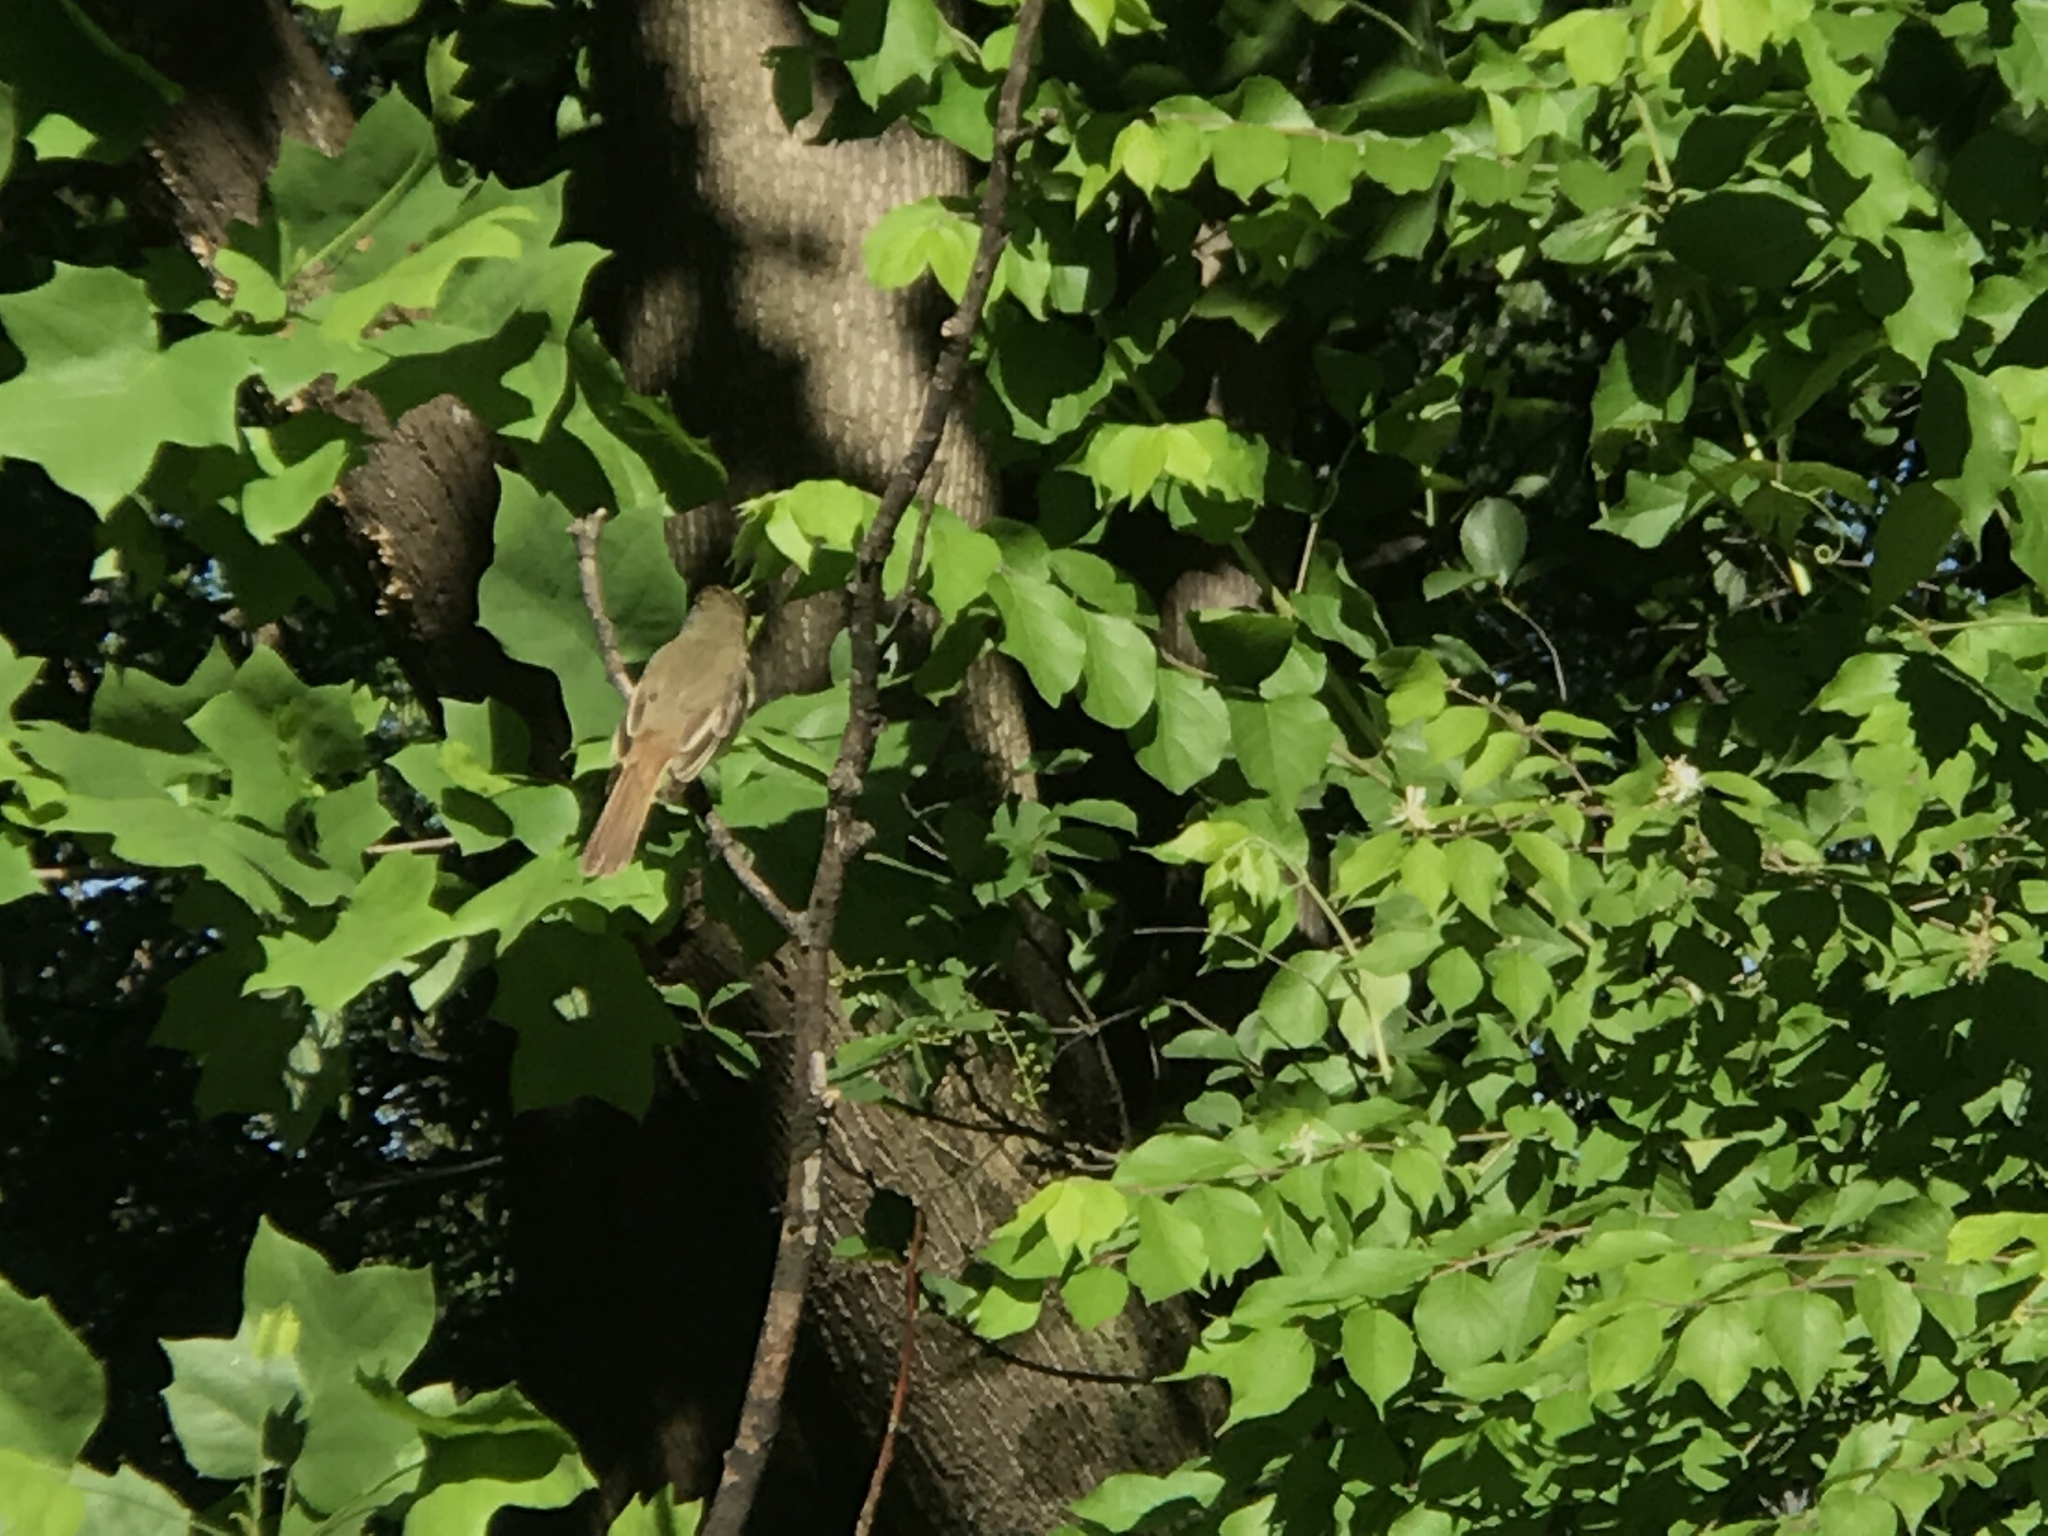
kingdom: Animalia
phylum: Chordata
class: Aves
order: Passeriformes
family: Tyrannidae
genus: Myiarchus
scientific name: Myiarchus crinitus
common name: Great crested flycatcher
